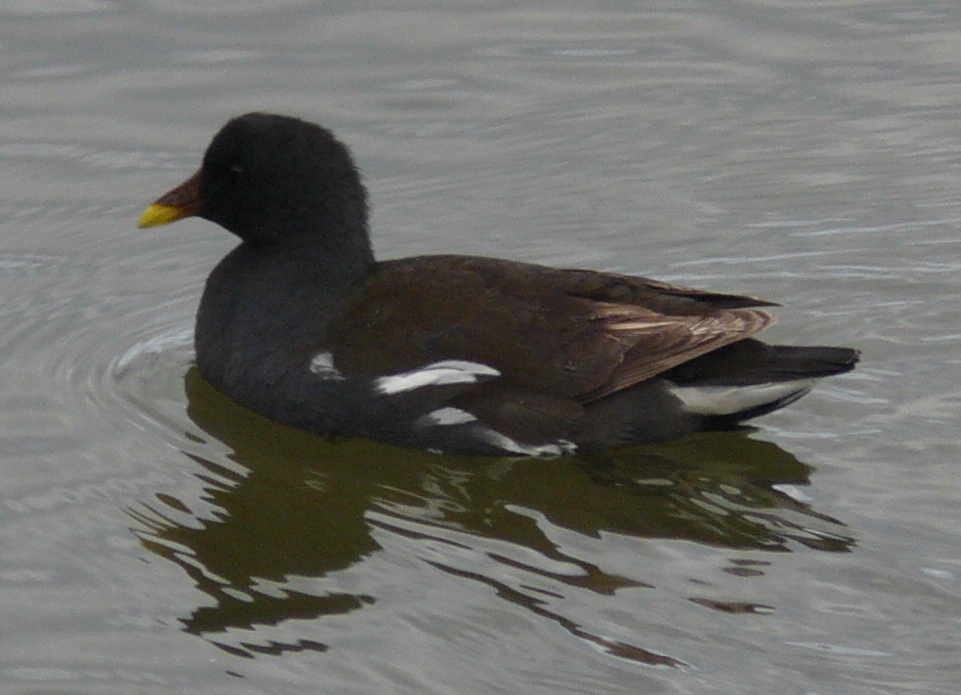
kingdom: Animalia
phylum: Chordata
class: Aves
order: Gruiformes
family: Rallidae
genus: Gallinula
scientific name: Gallinula chloropus
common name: Common moorhen
